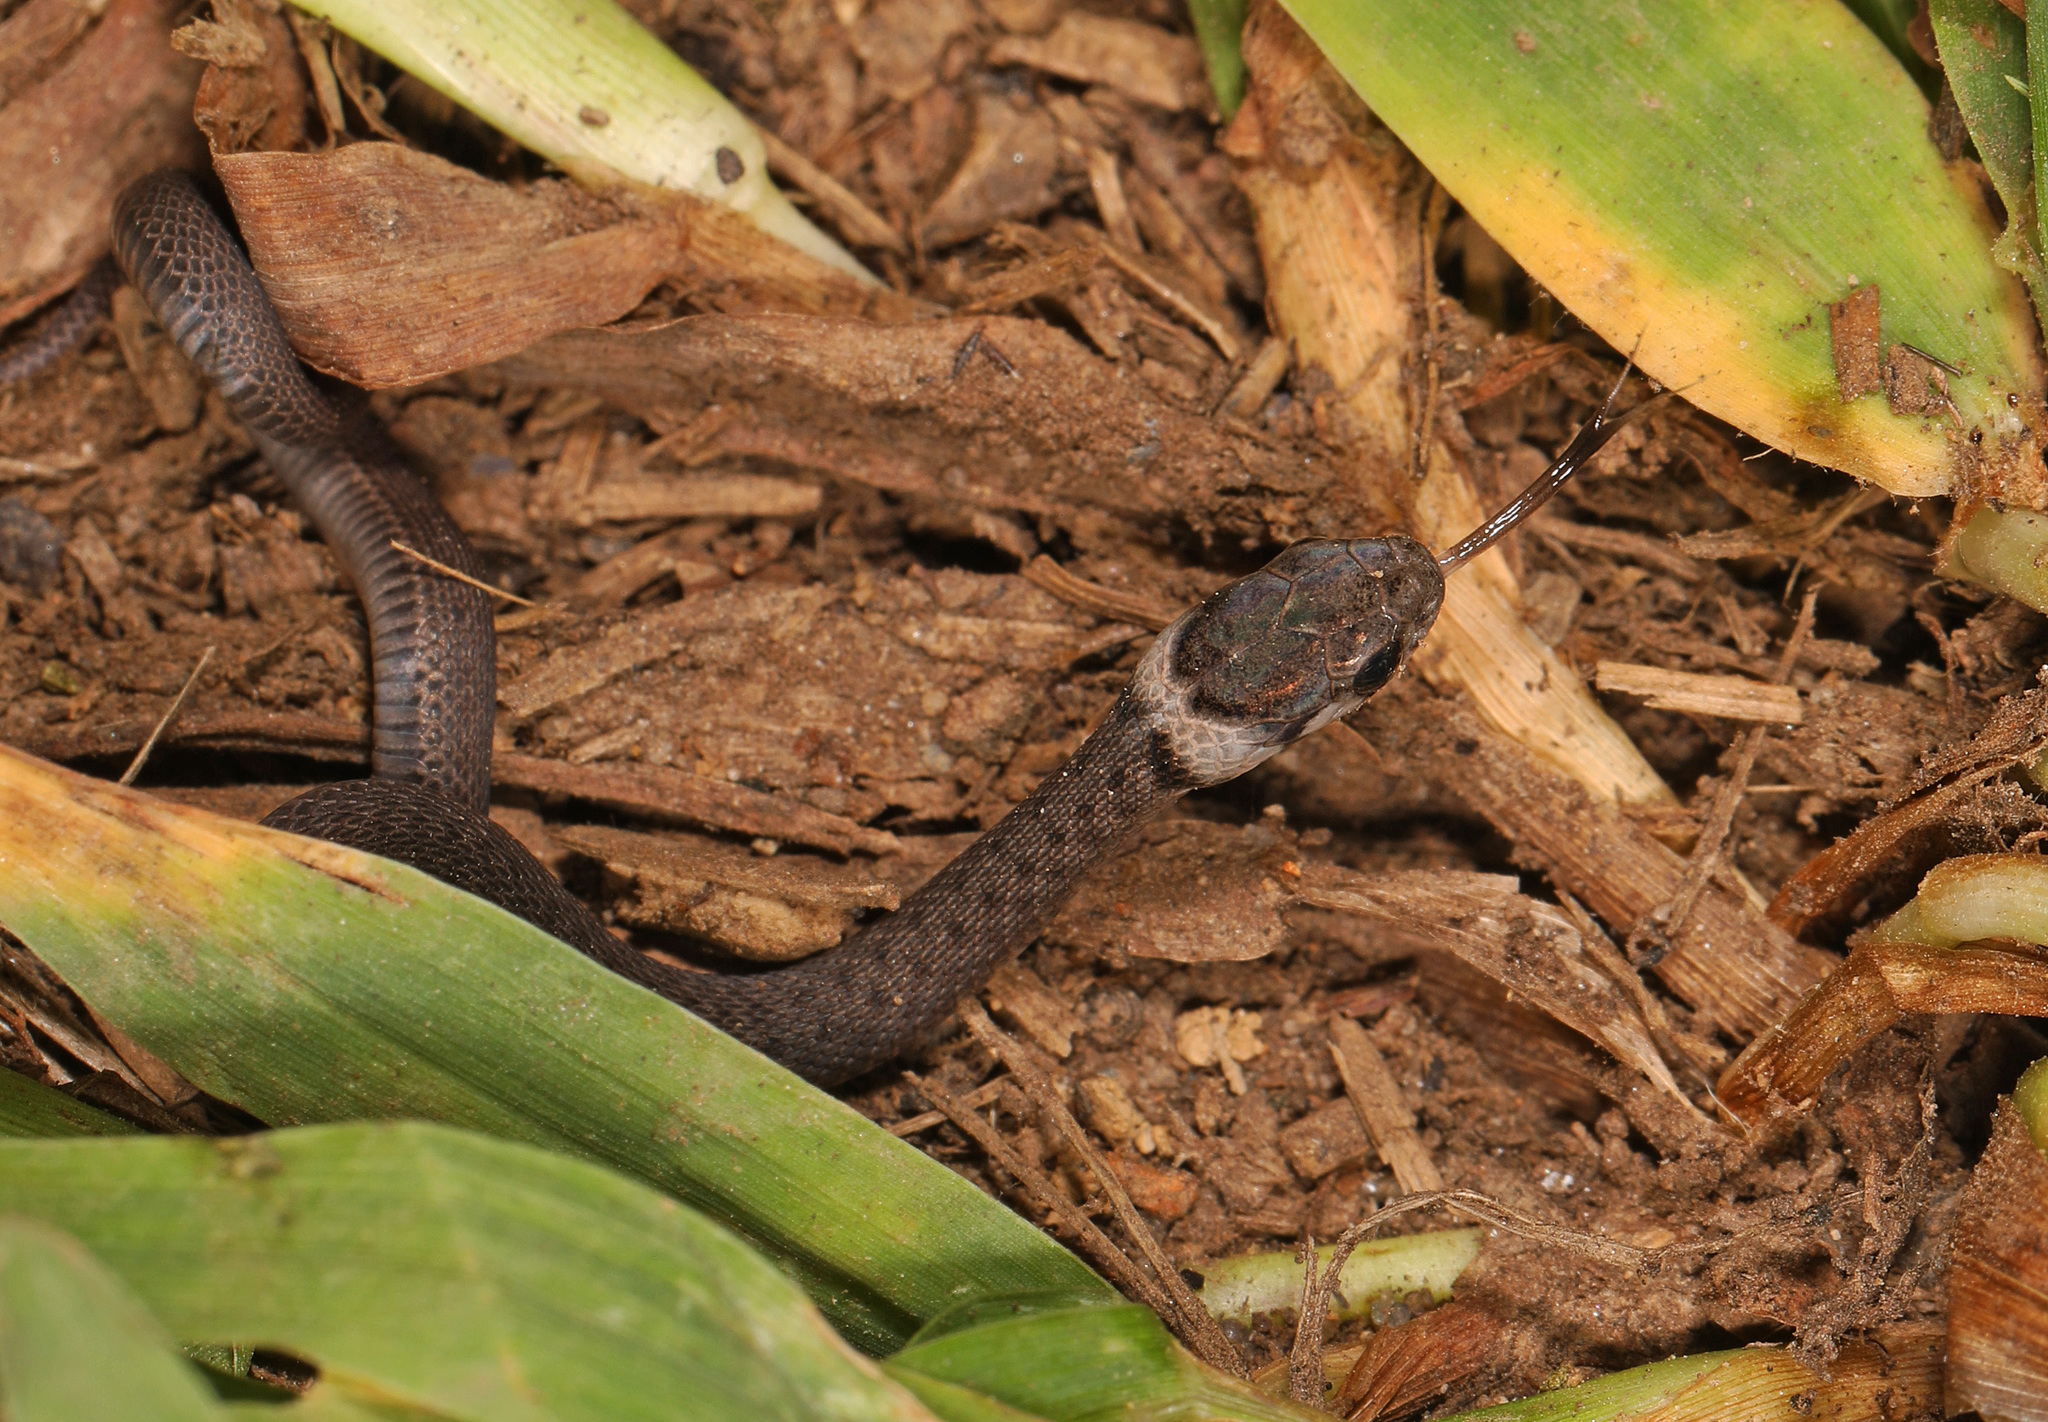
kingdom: Animalia
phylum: Chordata
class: Squamata
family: Colubridae
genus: Storeria
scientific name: Storeria dekayi
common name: (dekay’s) brown snake
